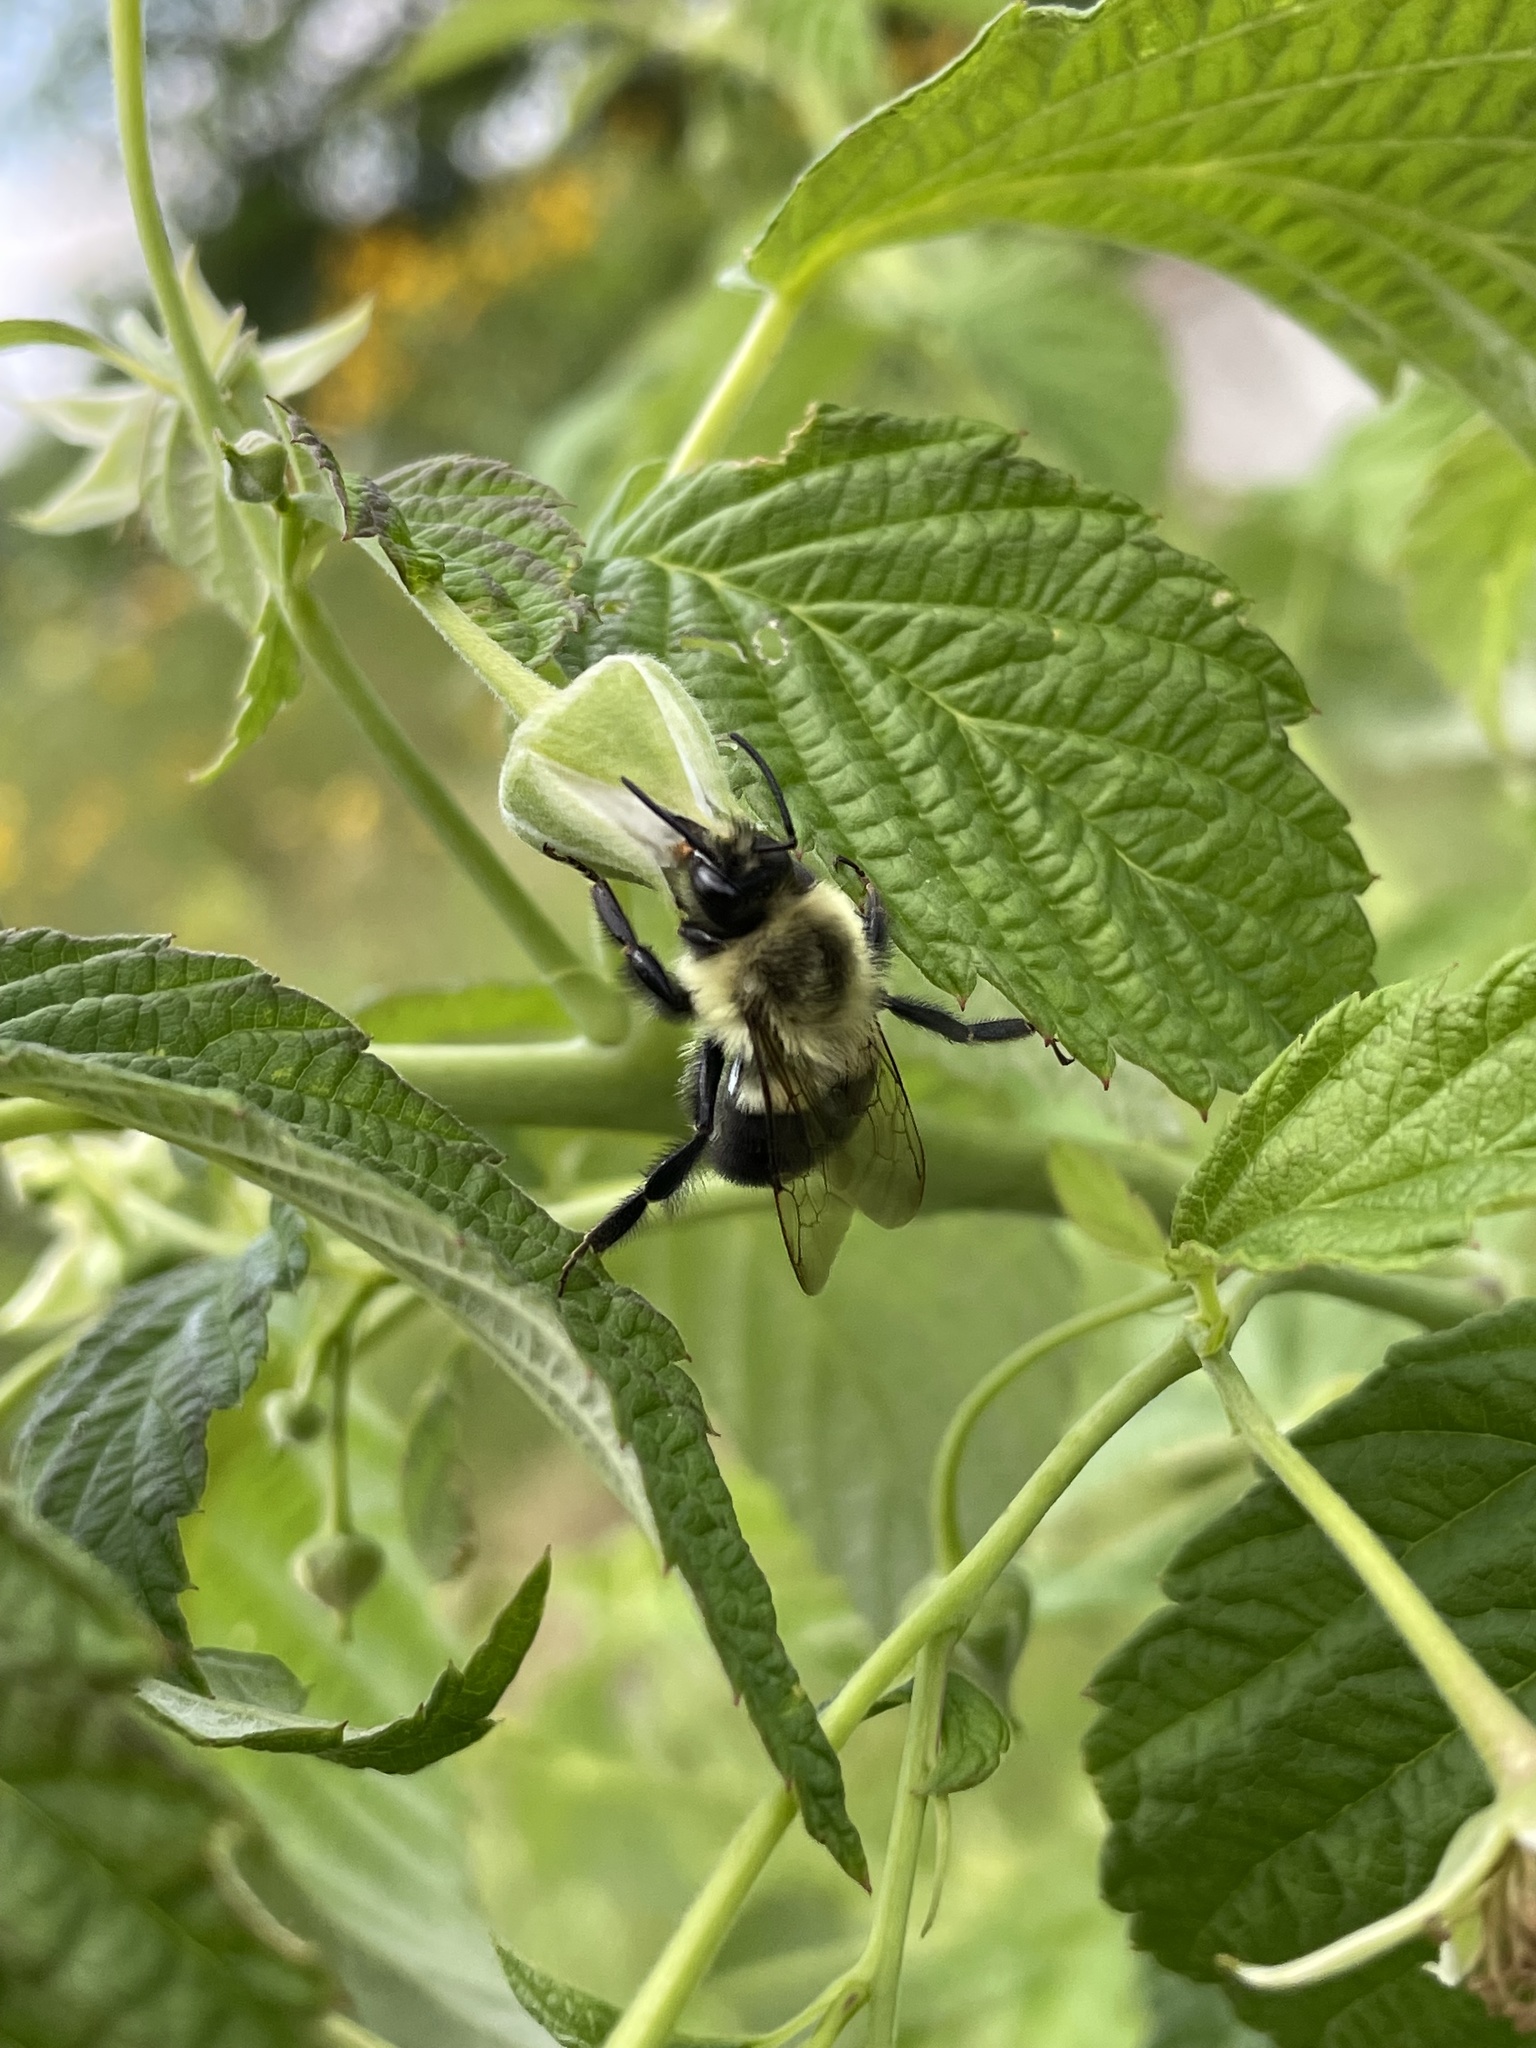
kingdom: Animalia
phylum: Arthropoda
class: Insecta
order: Hymenoptera
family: Apidae
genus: Bombus
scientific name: Bombus impatiens
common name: Common eastern bumble bee
